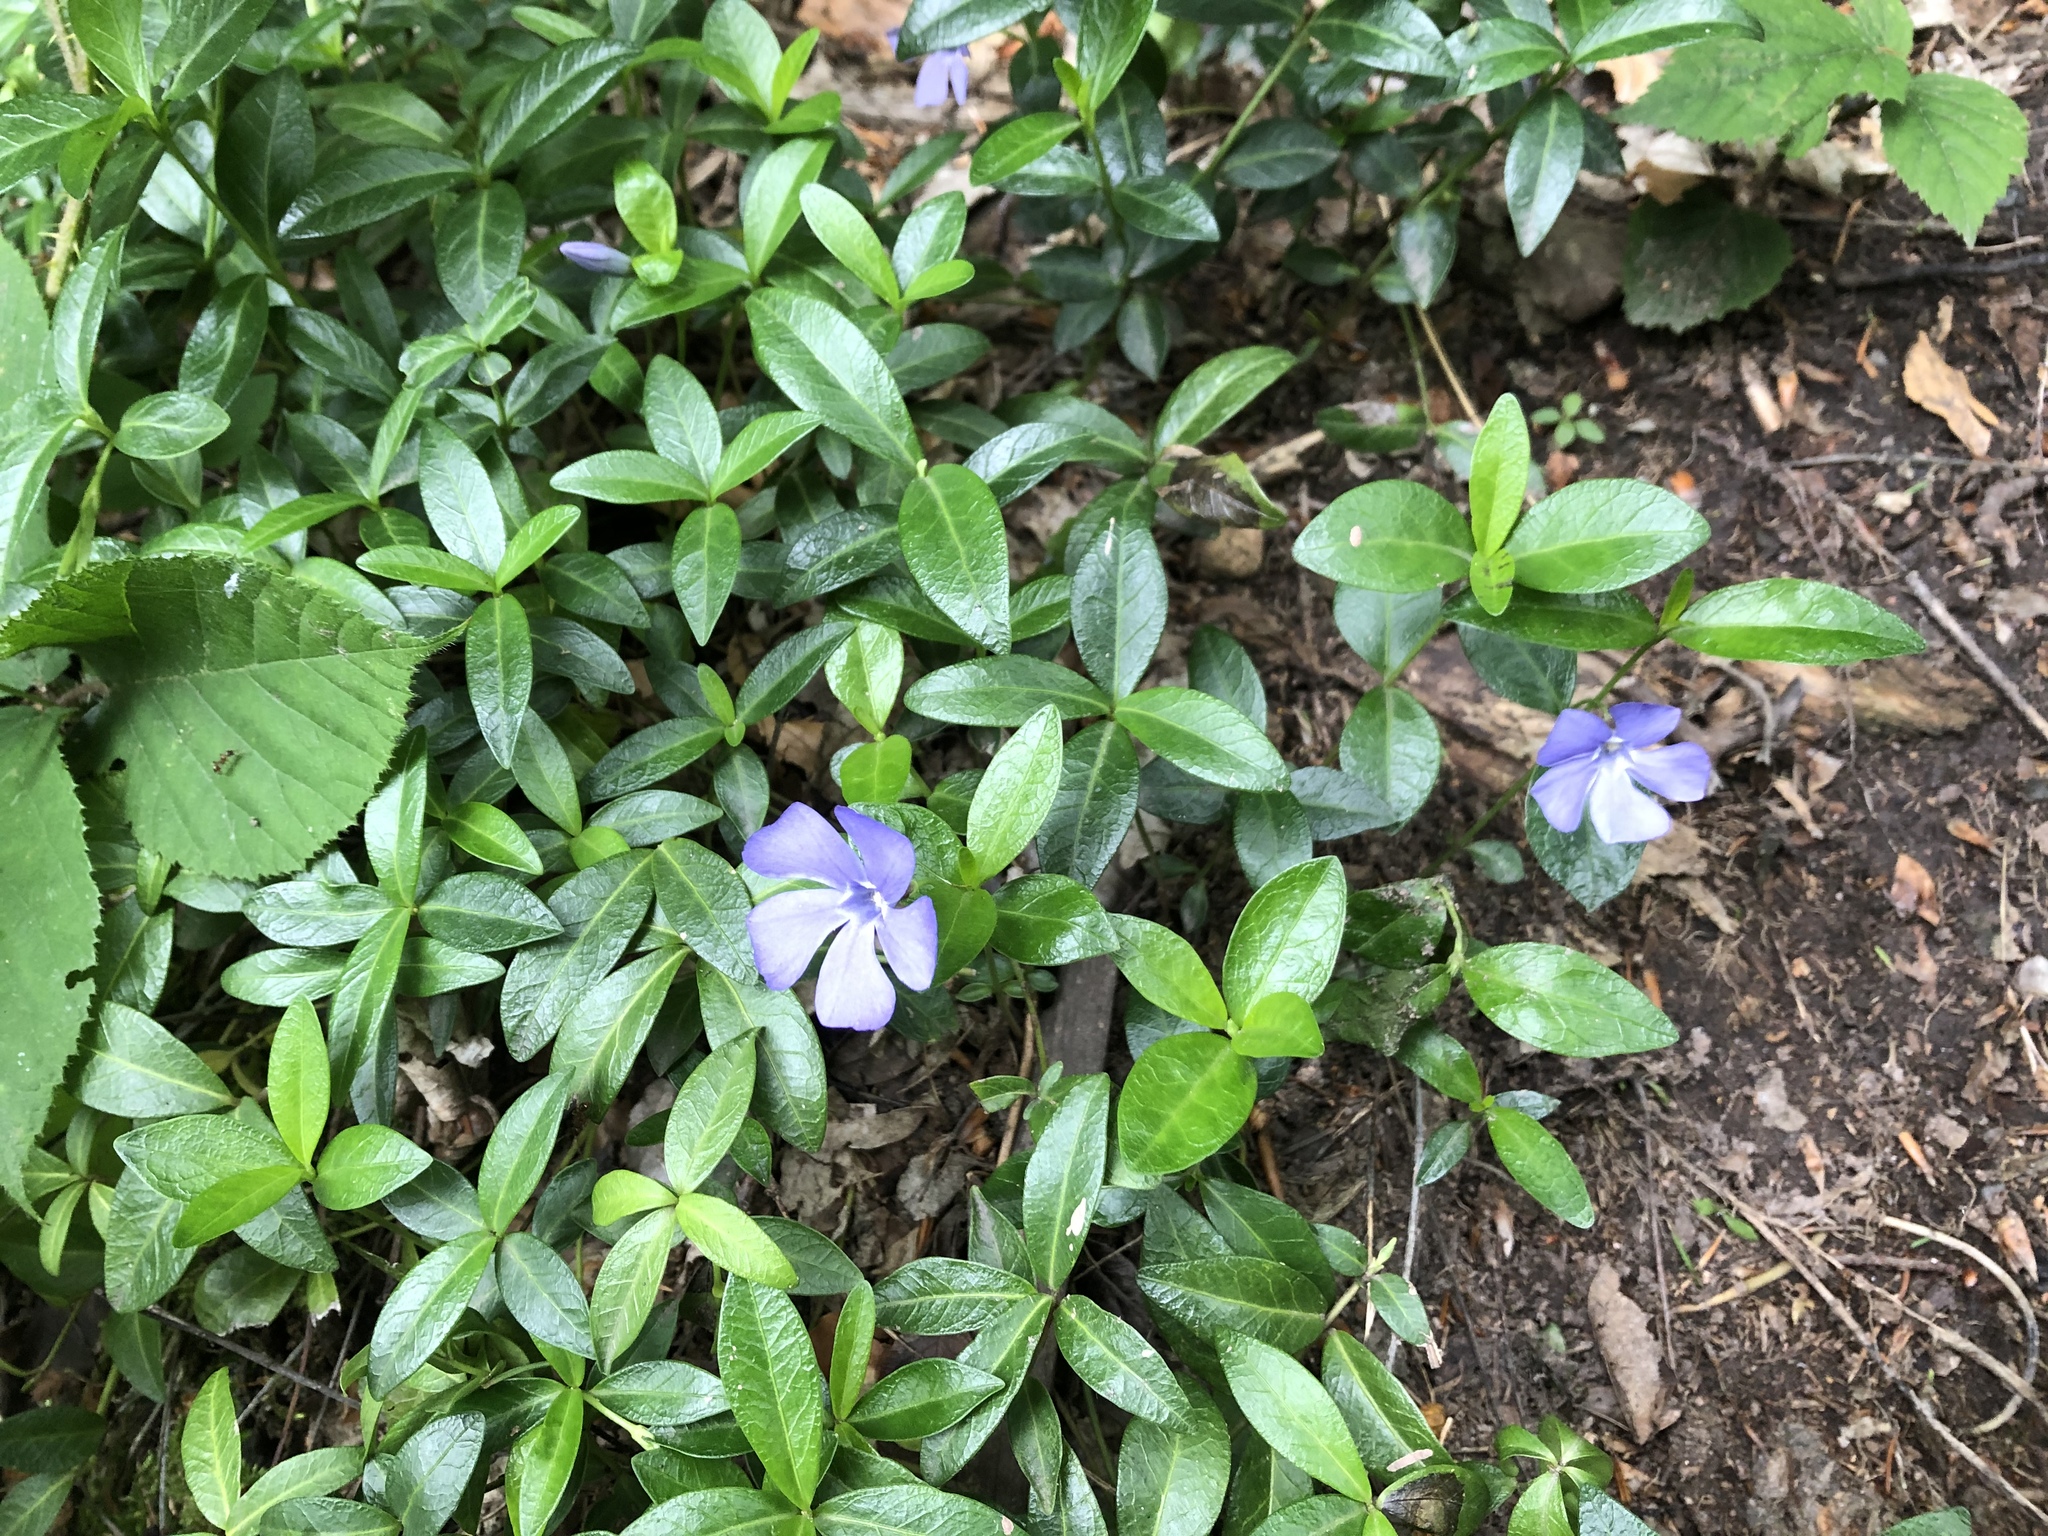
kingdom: Plantae
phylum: Tracheophyta
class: Magnoliopsida
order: Gentianales
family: Apocynaceae
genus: Vinca
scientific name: Vinca minor
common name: Lesser periwinkle
